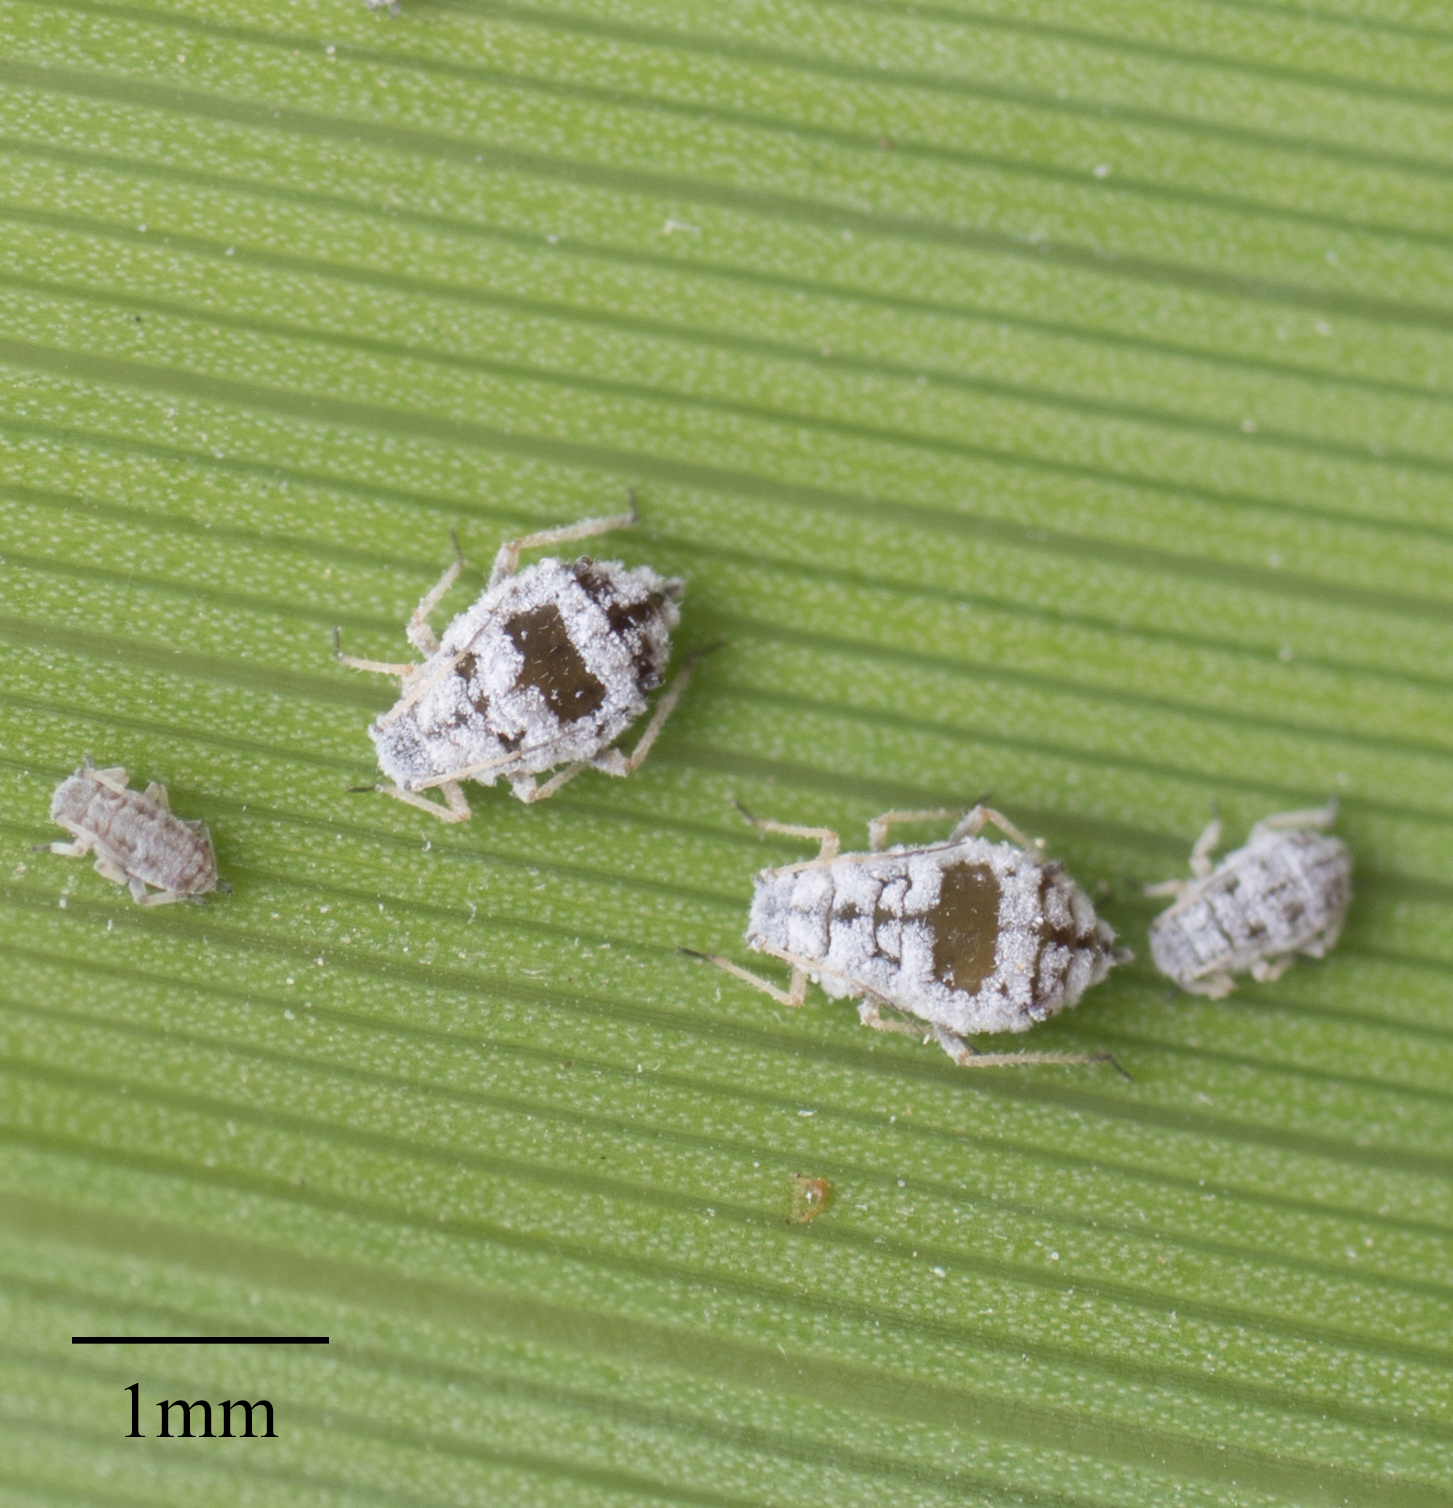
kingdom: Animalia
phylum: Arthropoda
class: Insecta
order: Hemiptera
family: Aphididae
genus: Melanaphis
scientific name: Melanaphis donacis
